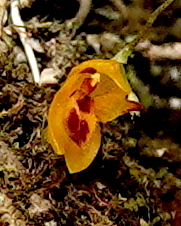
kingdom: Plantae
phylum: Tracheophyta
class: Liliopsida
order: Asparagales
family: Orchidaceae
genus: Platystele
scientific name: Platystele aurea
